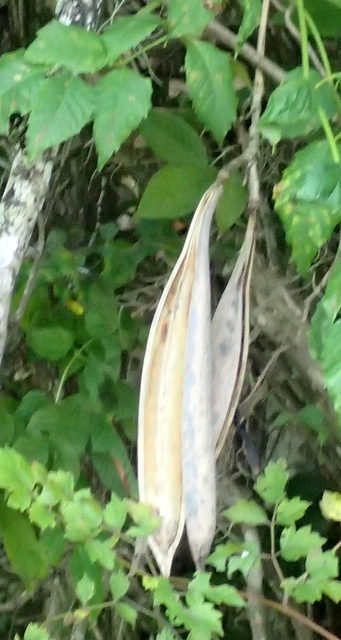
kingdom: Plantae
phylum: Tracheophyta
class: Magnoliopsida
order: Lamiales
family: Bignoniaceae
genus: Campsis
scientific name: Campsis radicans
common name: Trumpet-creeper
